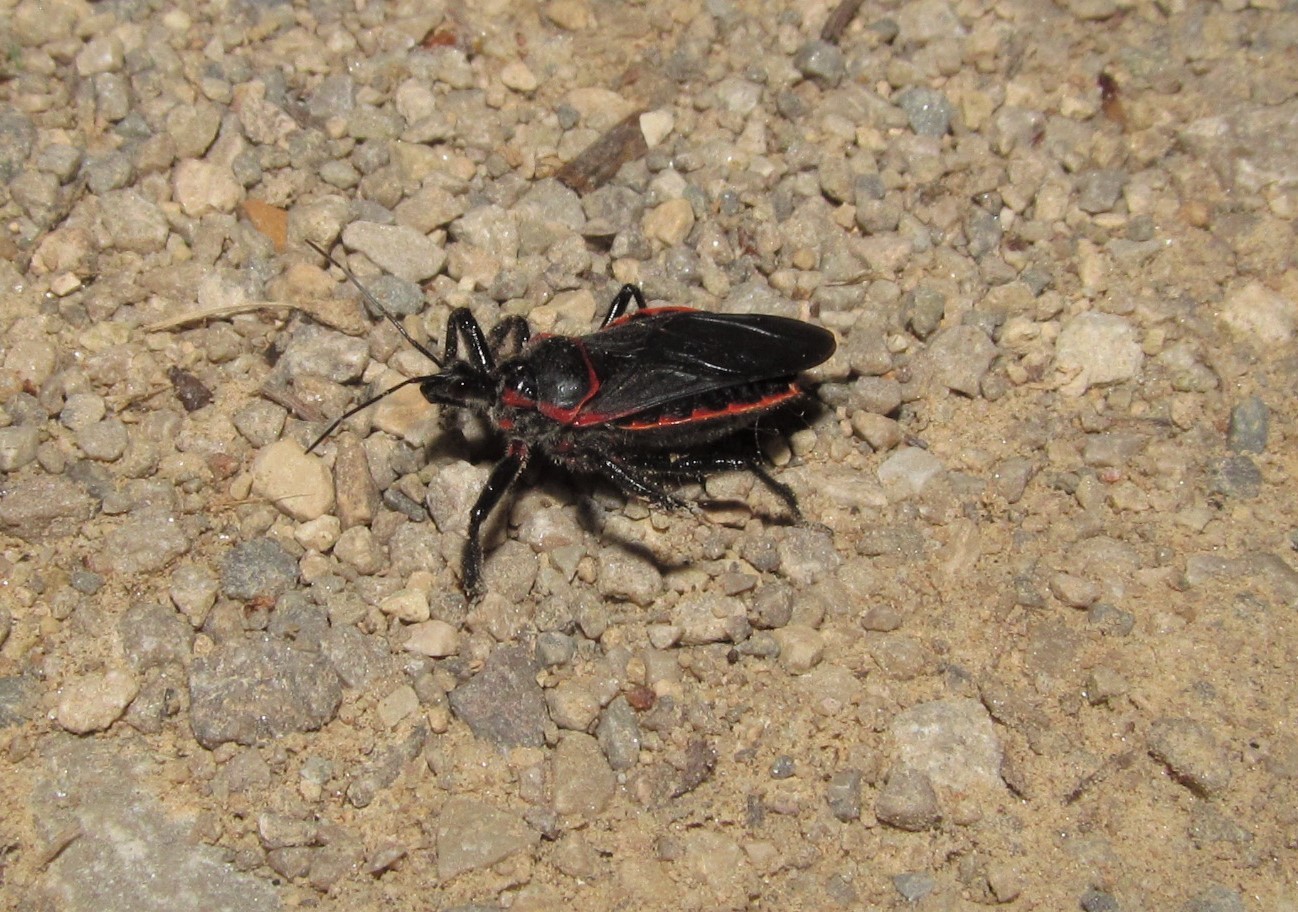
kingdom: Animalia
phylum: Arthropoda
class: Insecta
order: Hemiptera
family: Reduviidae
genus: Apiomerus
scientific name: Apiomerus crassipes
